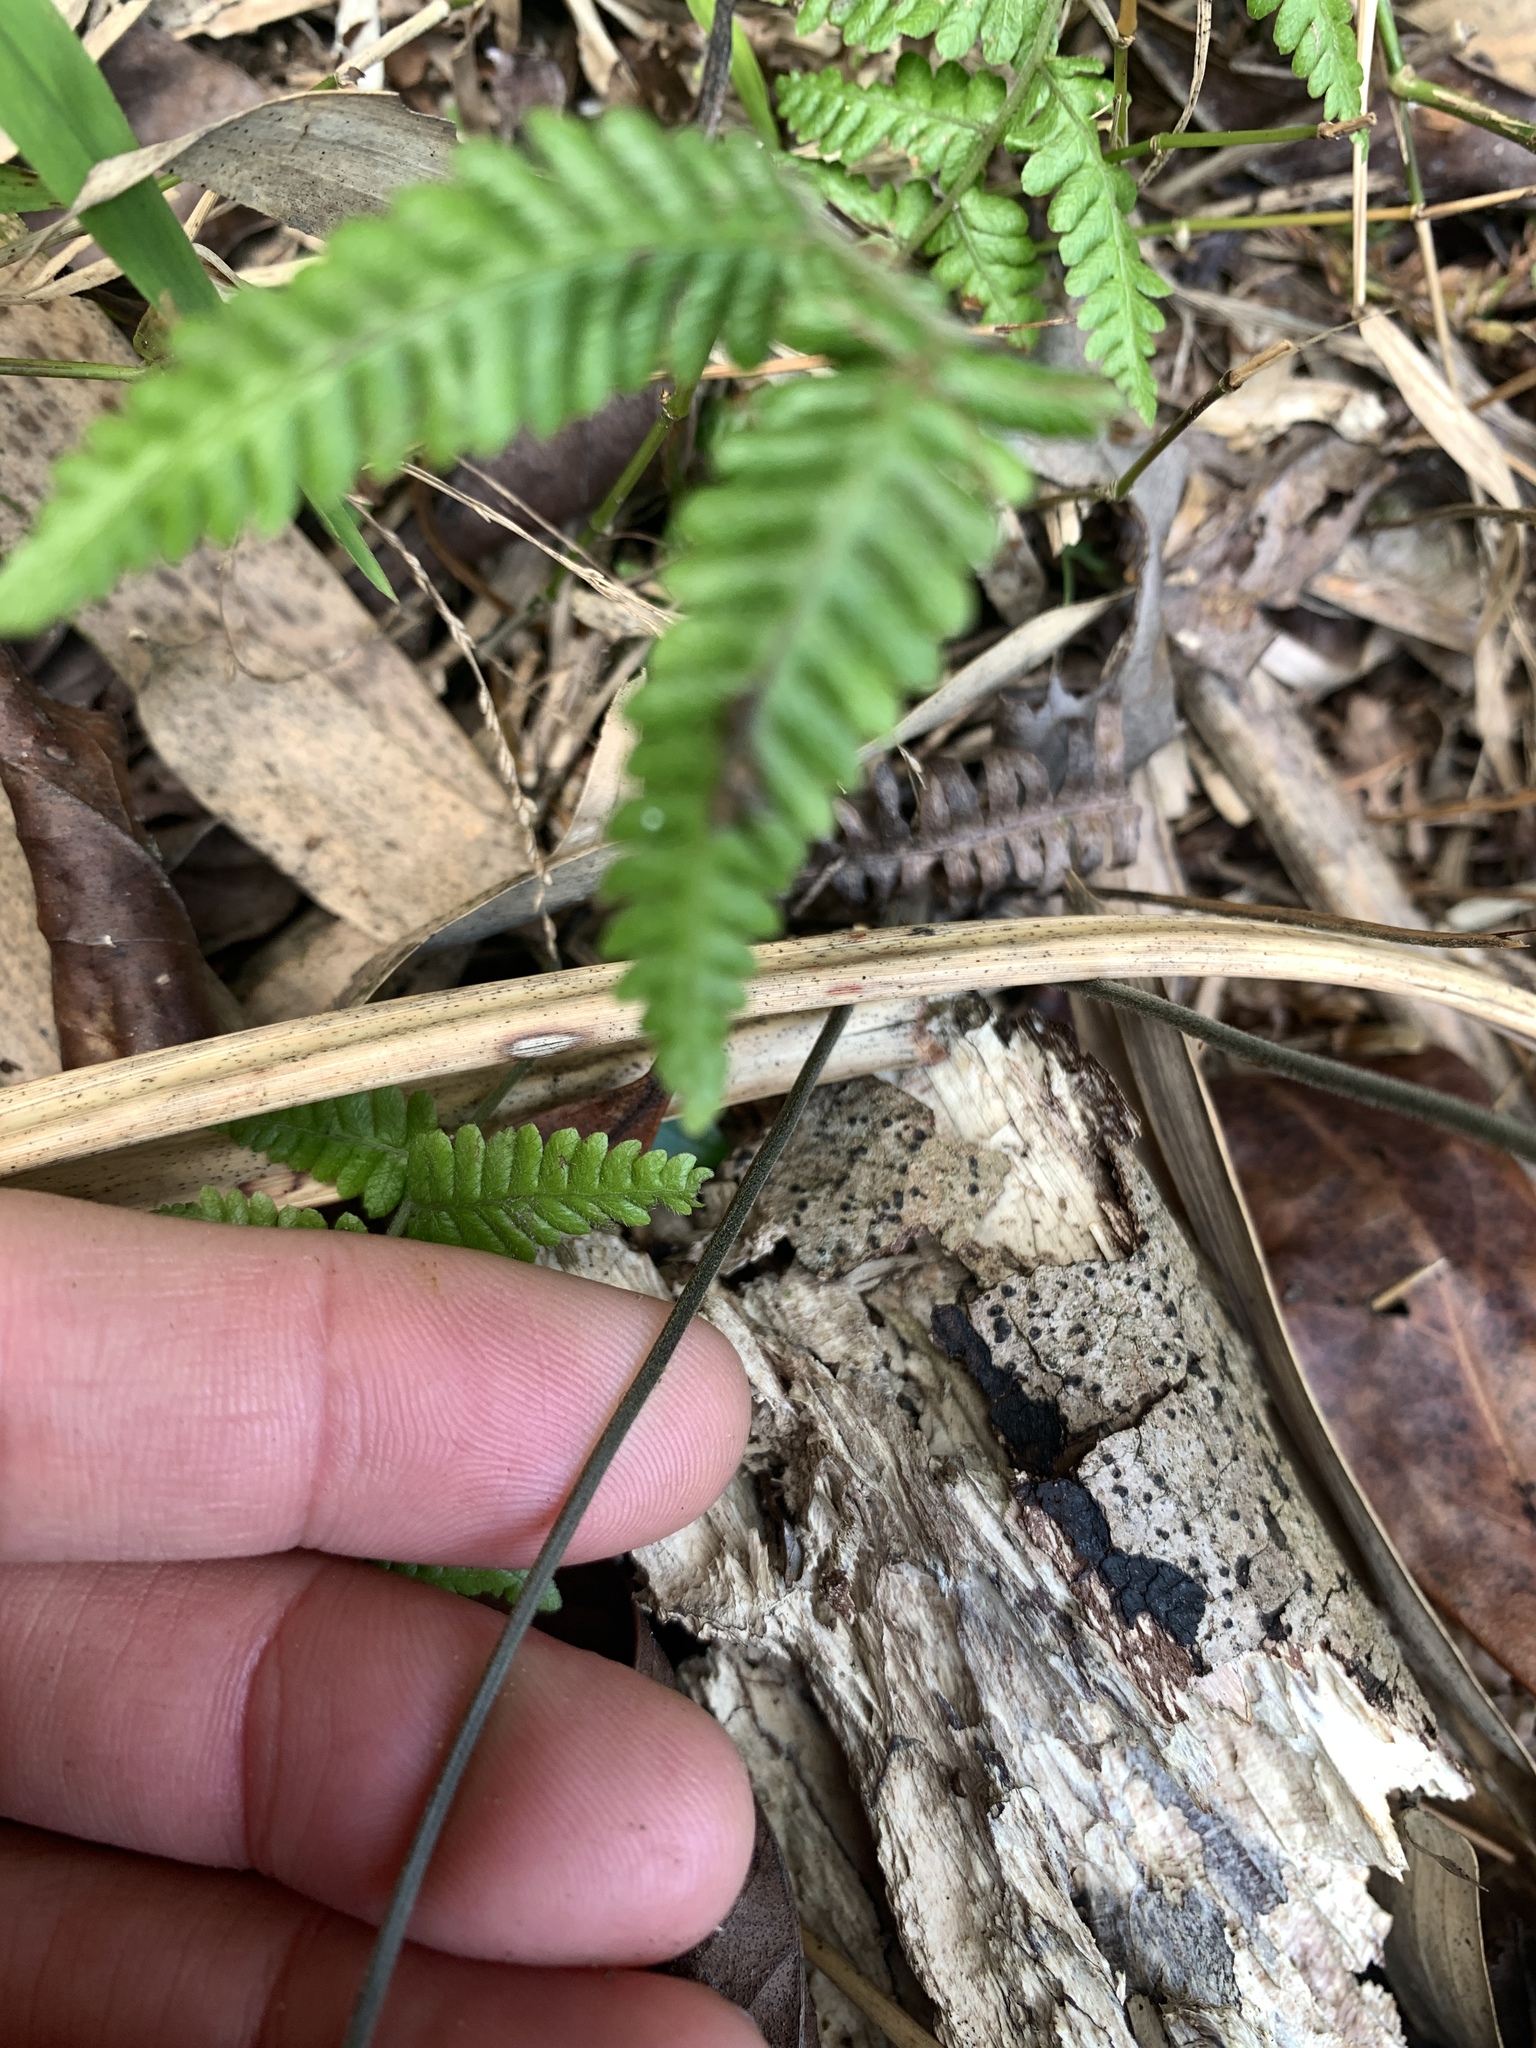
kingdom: Plantae
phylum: Tracheophyta
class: Polypodiopsida
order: Polypodiales
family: Thelypteridaceae
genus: Amauropelta
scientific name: Amauropelta glanduligera
